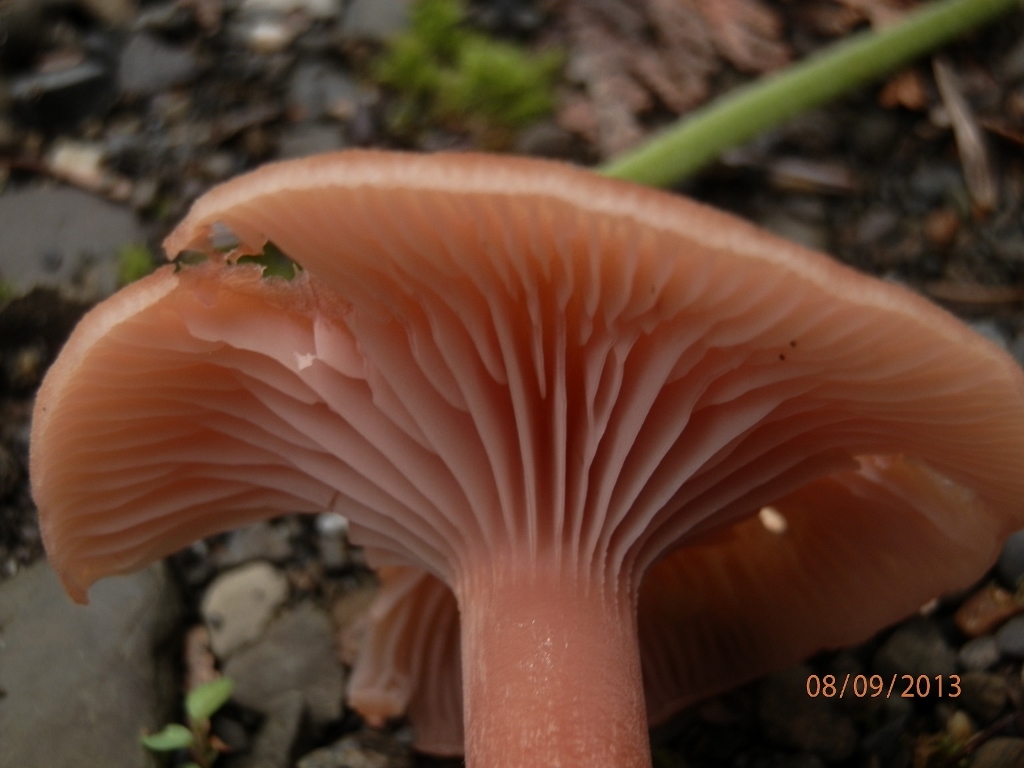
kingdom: Fungi
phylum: Basidiomycota
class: Agaricomycetes
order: Agaricales
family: Hydnangiaceae
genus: Laccaria
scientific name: Laccaria bicolor
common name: Bicoloured deceiver
